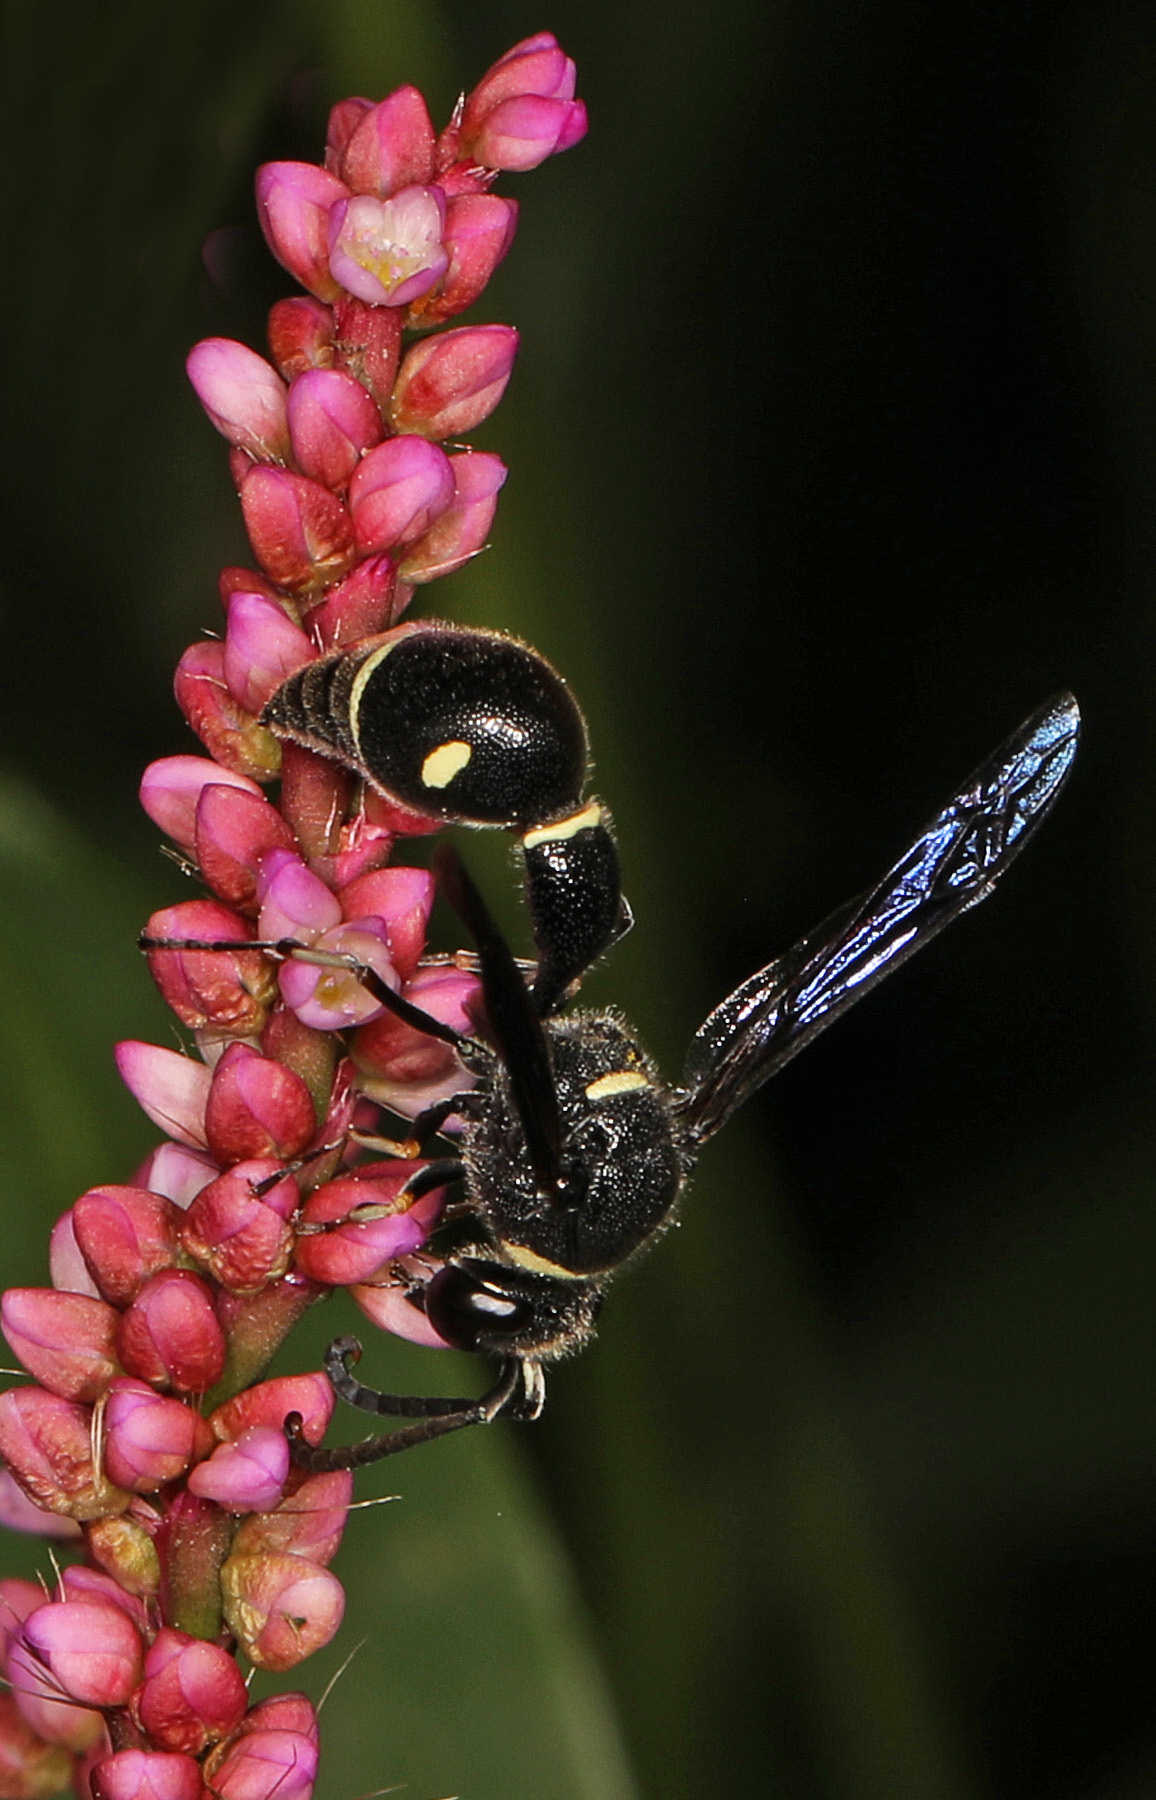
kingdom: Animalia
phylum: Arthropoda
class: Insecta
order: Hymenoptera
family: Vespidae
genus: Eumenes
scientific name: Eumenes fraternus
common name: Fraternal potter wasp
